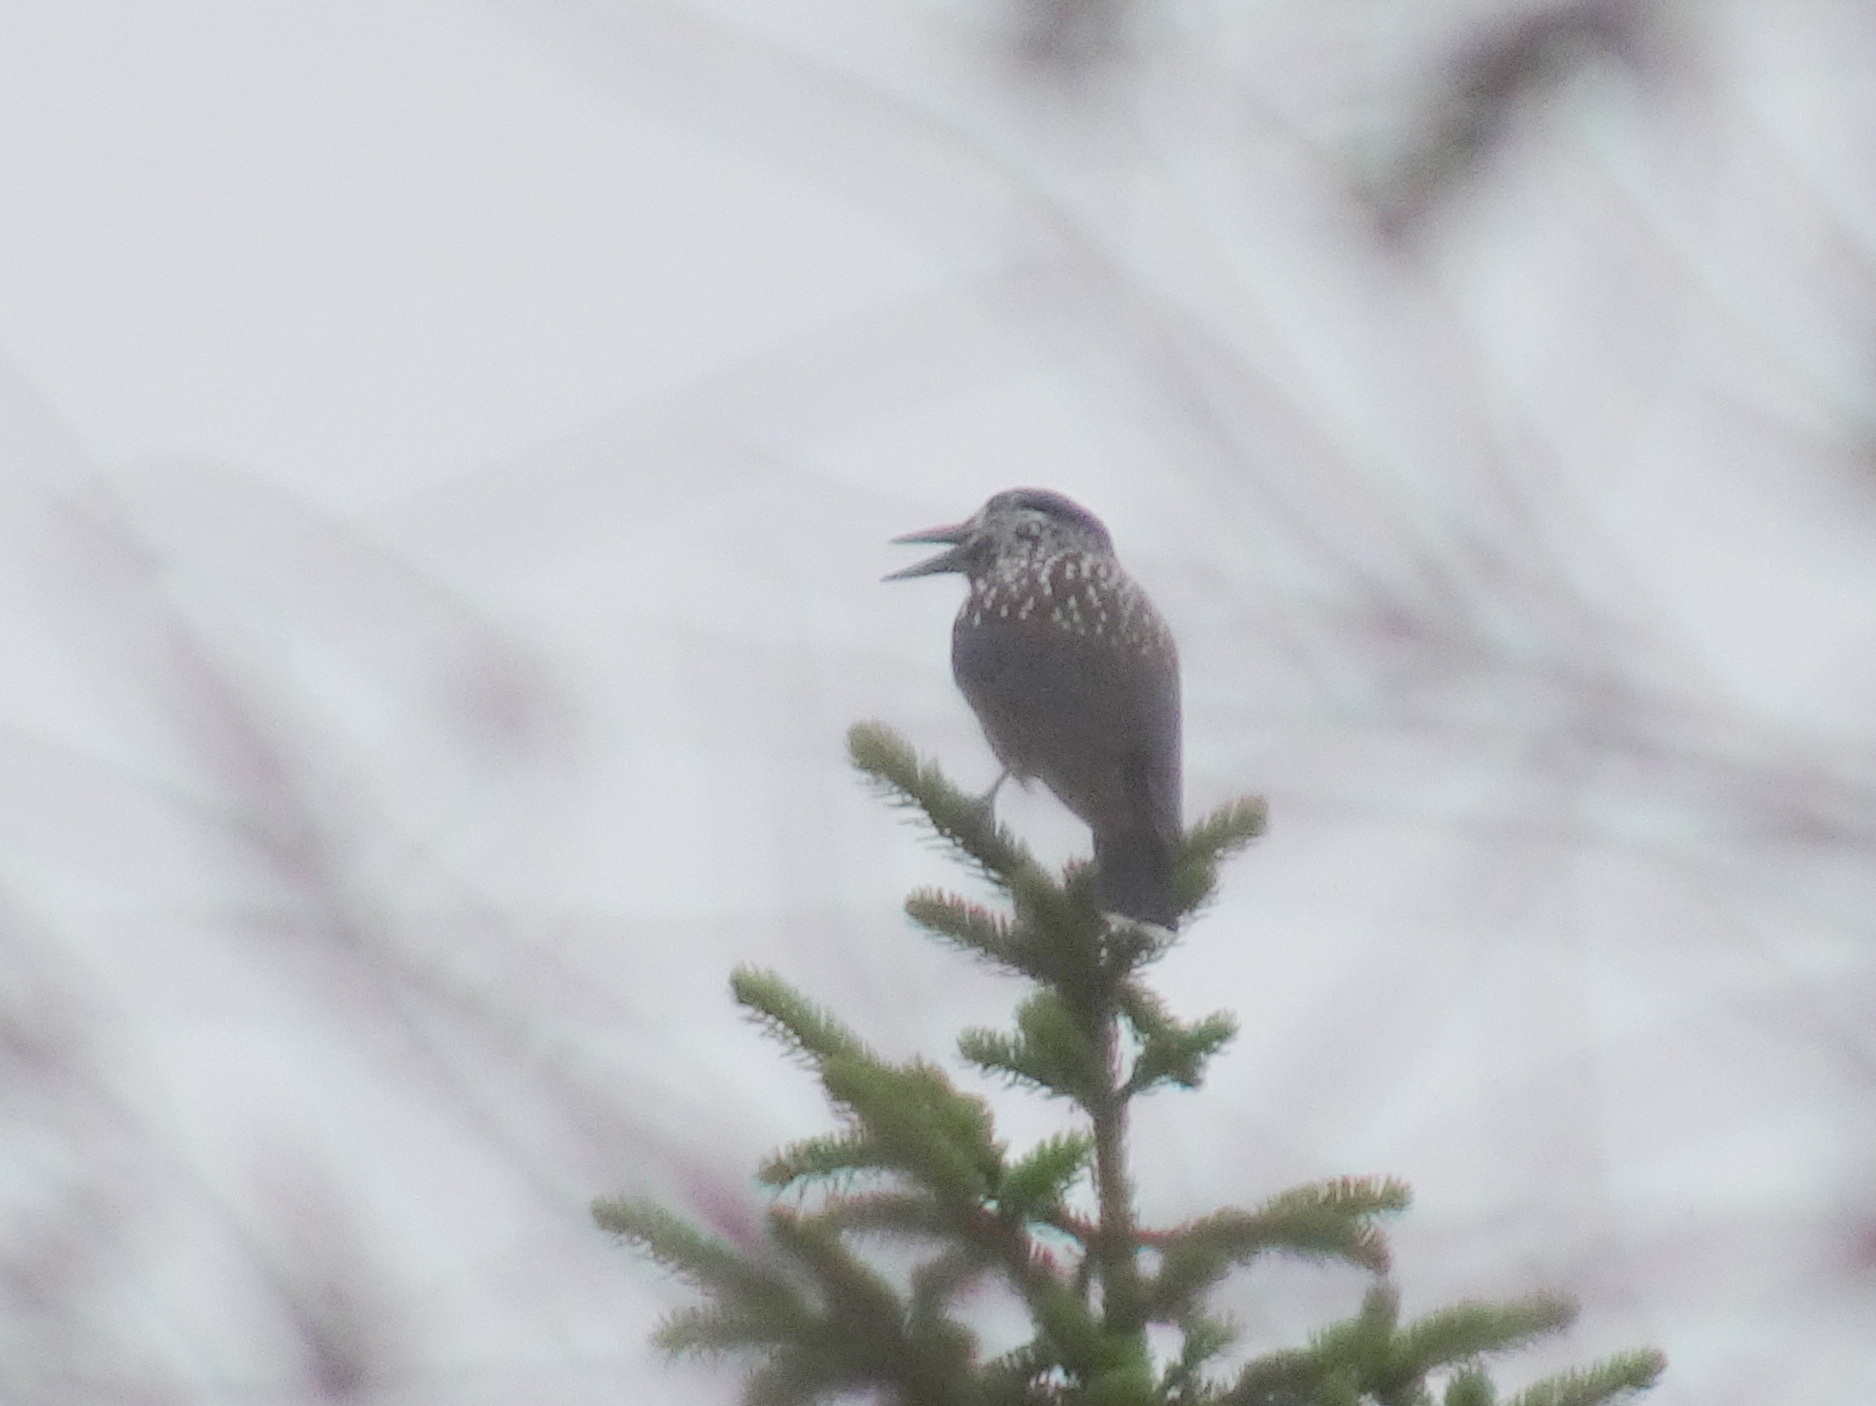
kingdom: Animalia
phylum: Chordata
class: Aves
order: Passeriformes
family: Corvidae
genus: Nucifraga
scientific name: Nucifraga caryocatactes
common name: Spotted nutcracker
